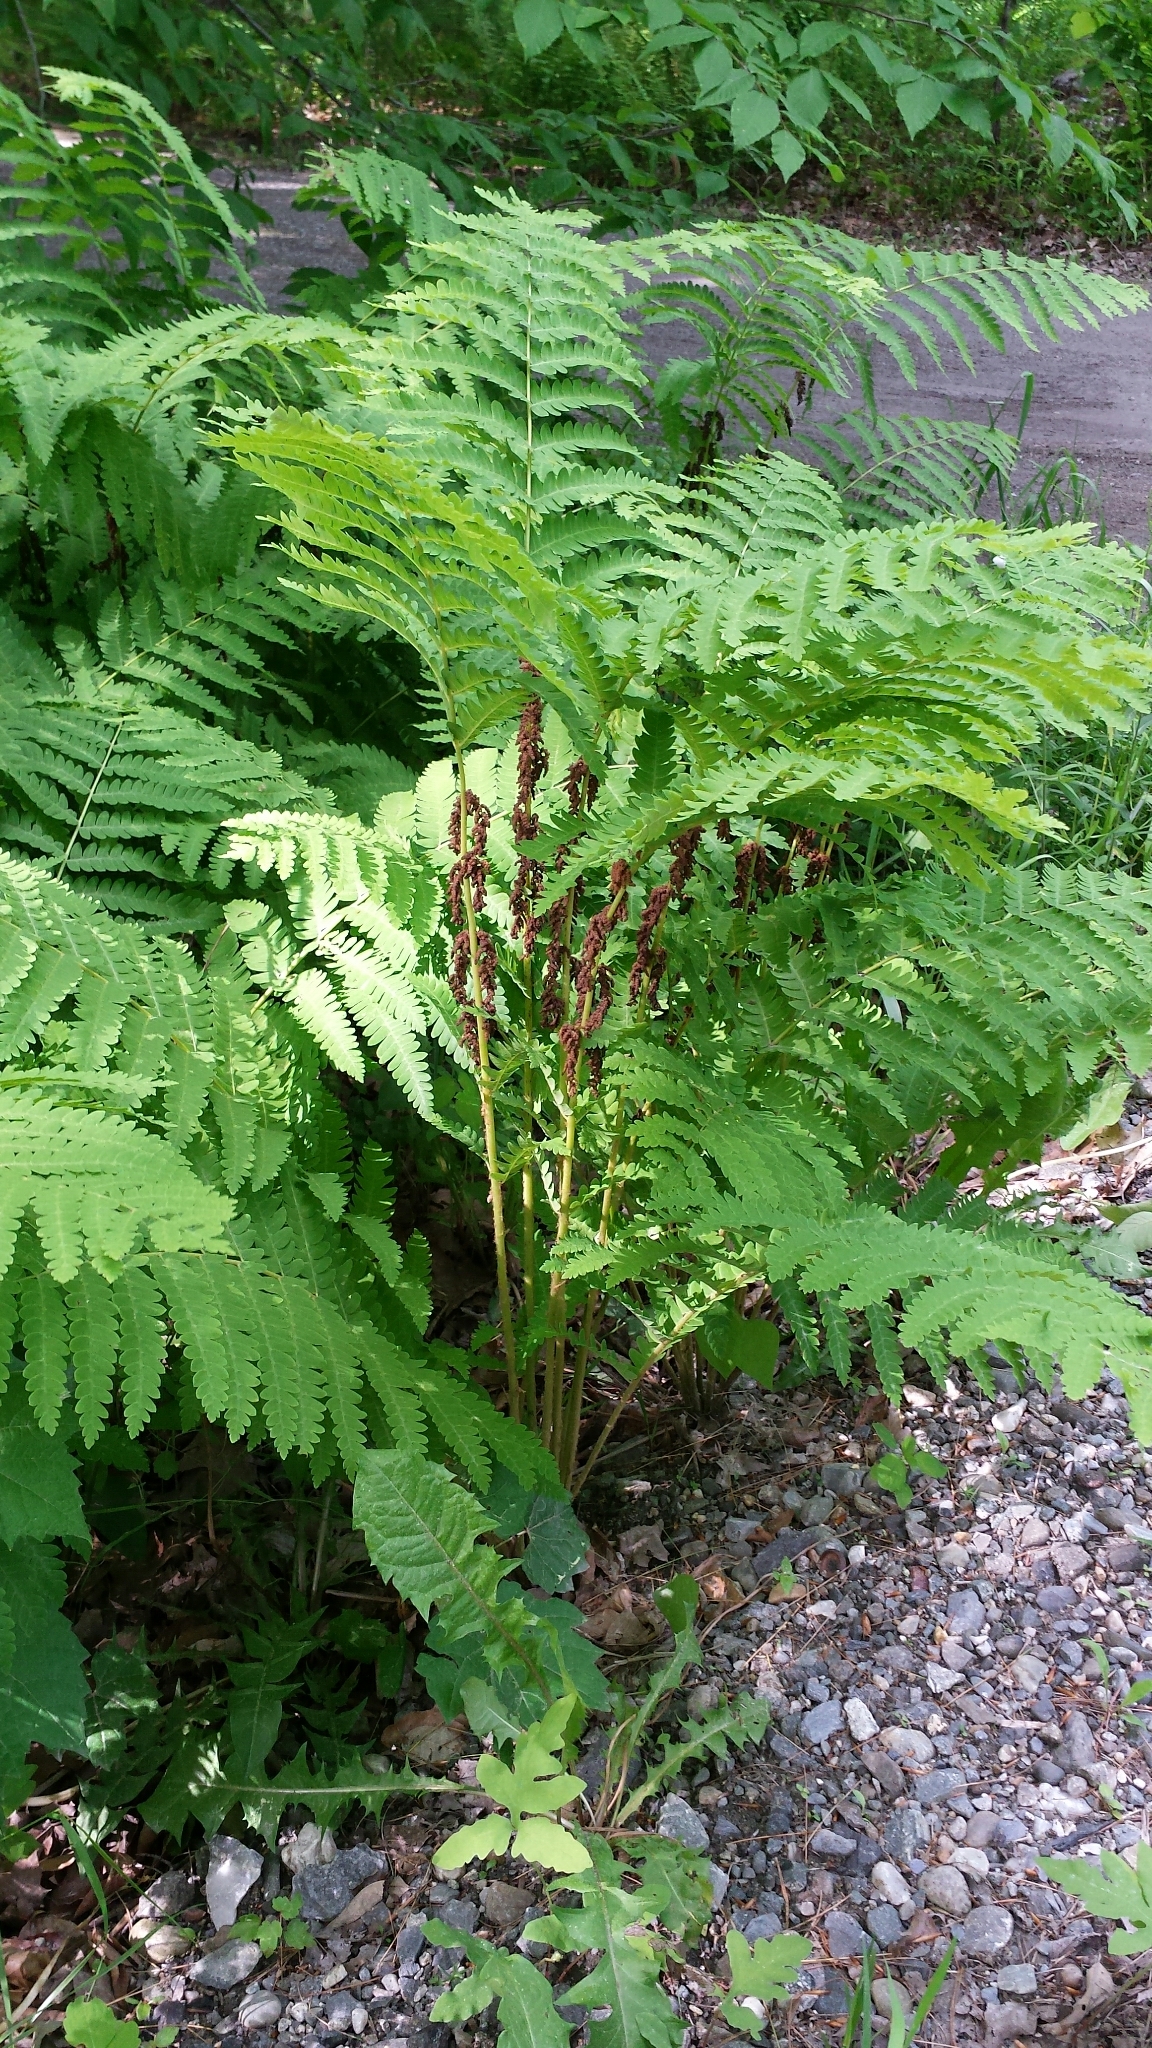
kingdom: Plantae
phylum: Tracheophyta
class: Polypodiopsida
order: Osmundales
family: Osmundaceae
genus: Claytosmunda
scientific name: Claytosmunda claytoniana
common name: Clayton's fern
